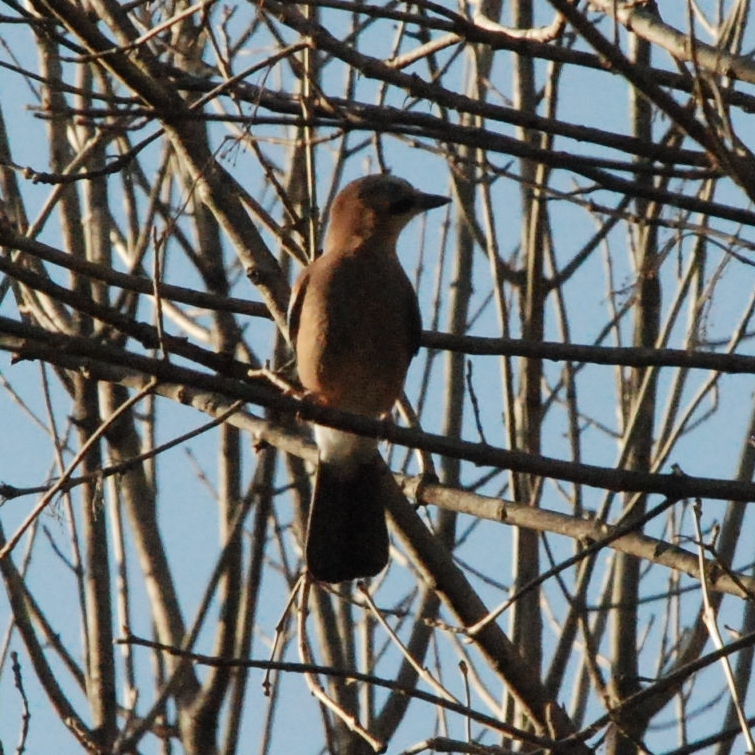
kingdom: Animalia
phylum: Chordata
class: Aves
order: Passeriformes
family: Corvidae
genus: Garrulus
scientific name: Garrulus glandarius
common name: Eurasian jay
